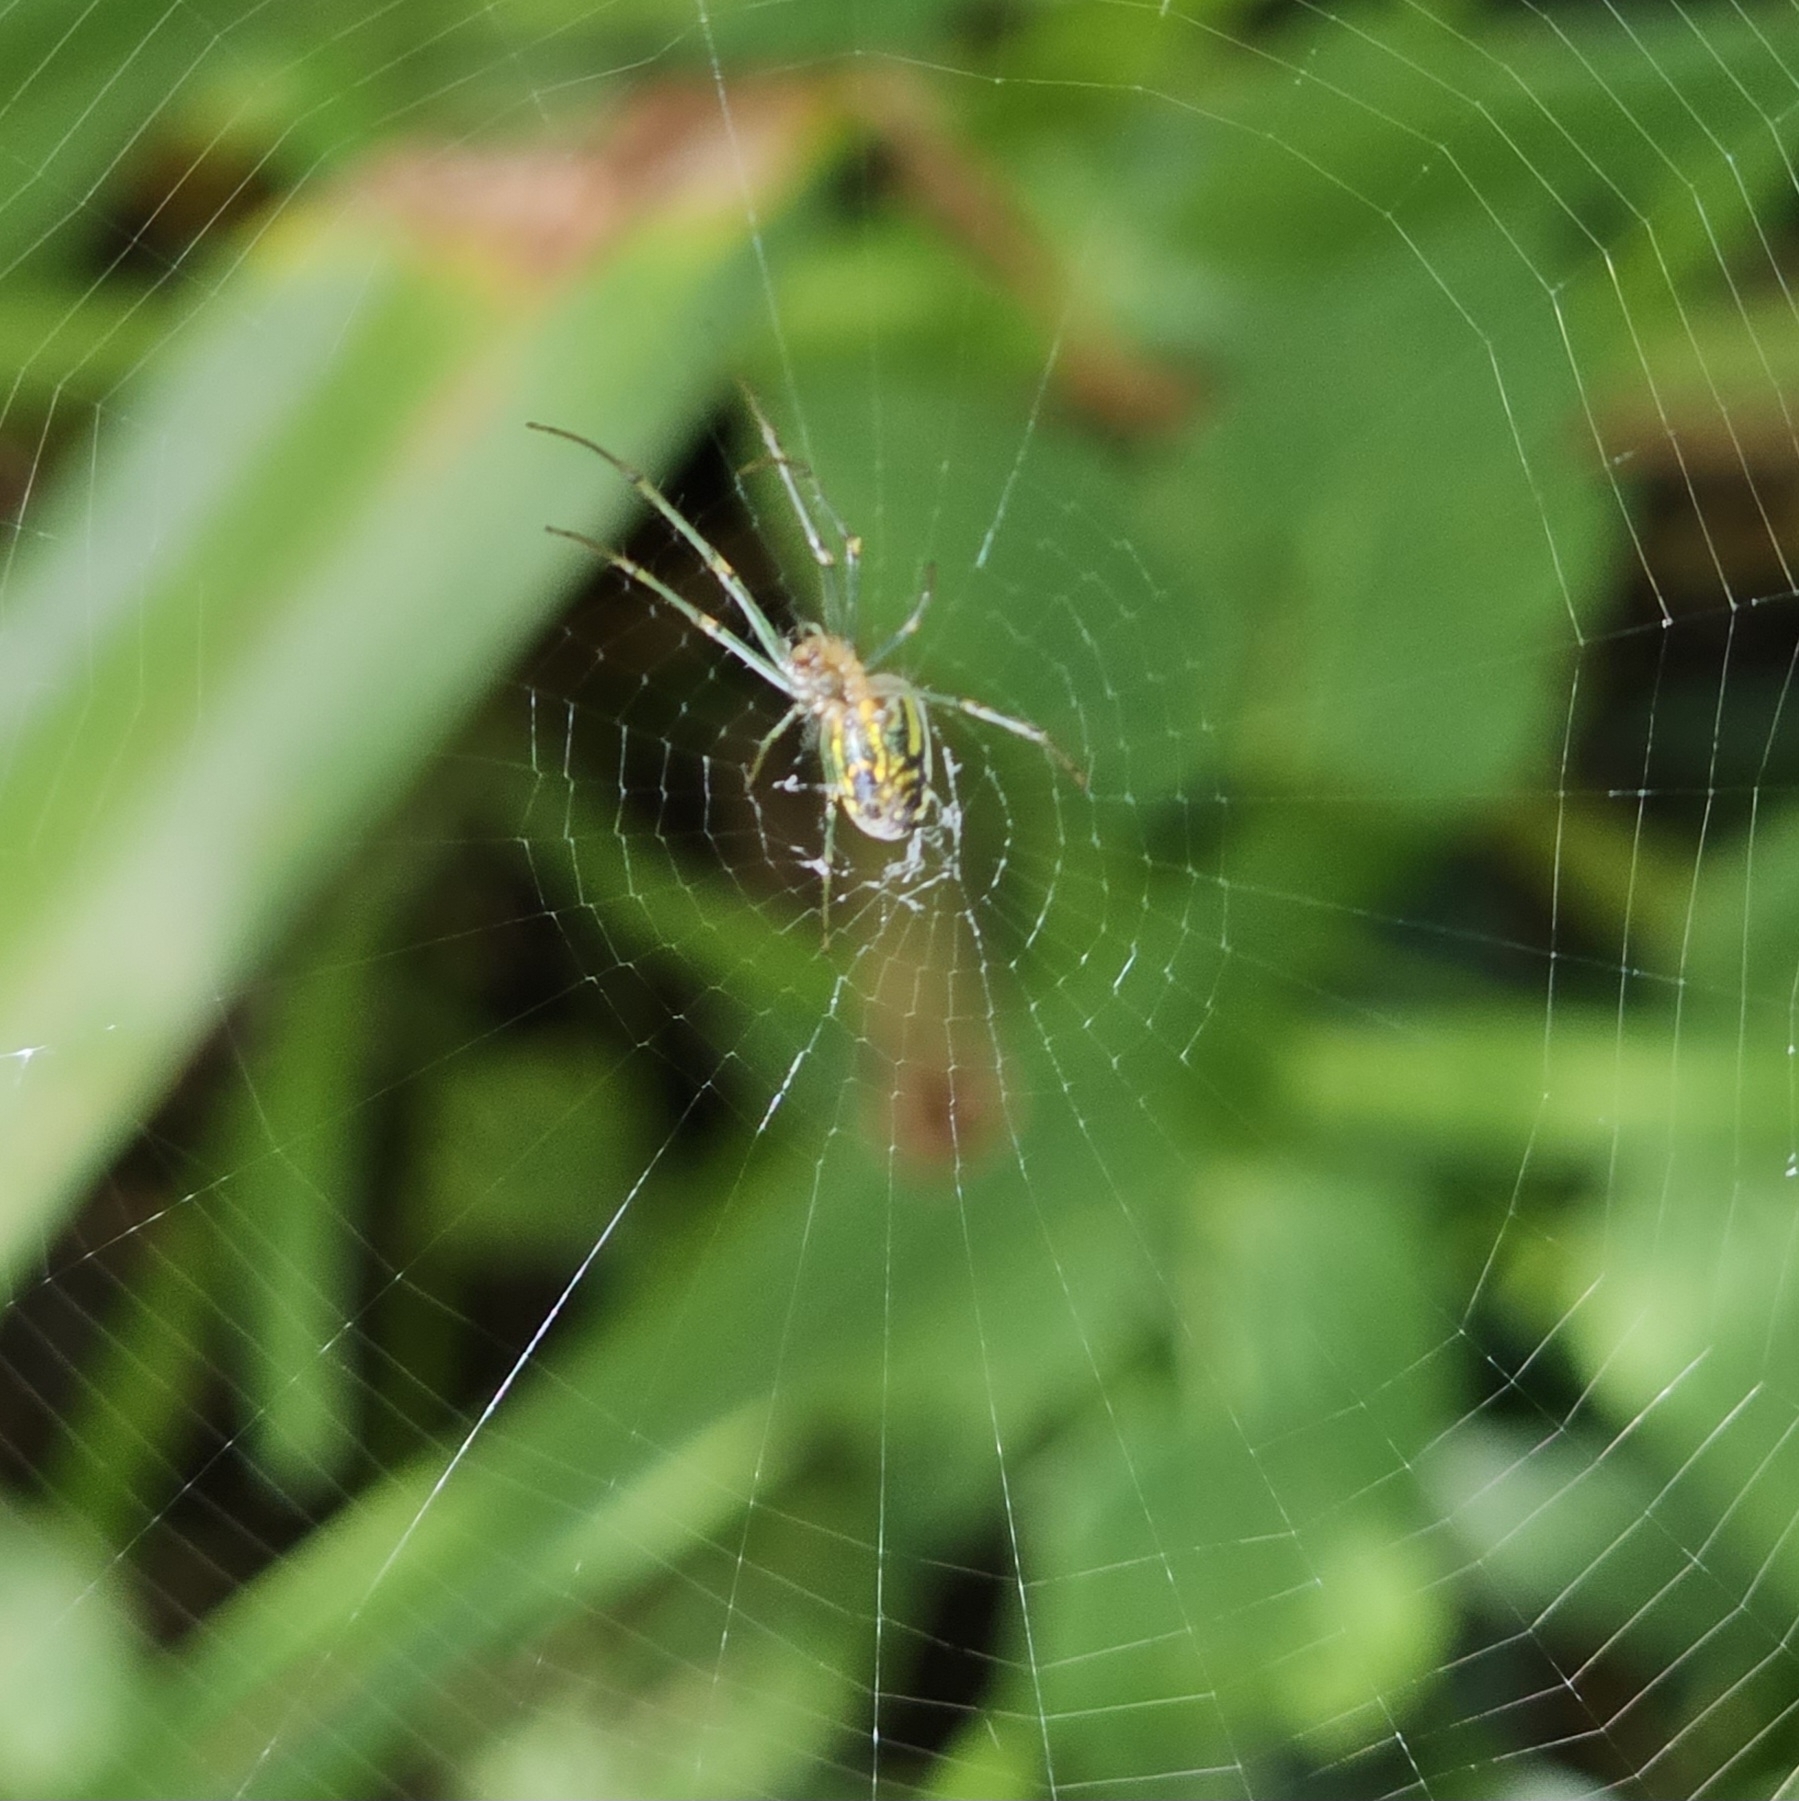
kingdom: Animalia
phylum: Arthropoda
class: Arachnida
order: Araneae
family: Tetragnathidae
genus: Leucauge
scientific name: Leucauge venusta
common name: Longjawed orb weavers
